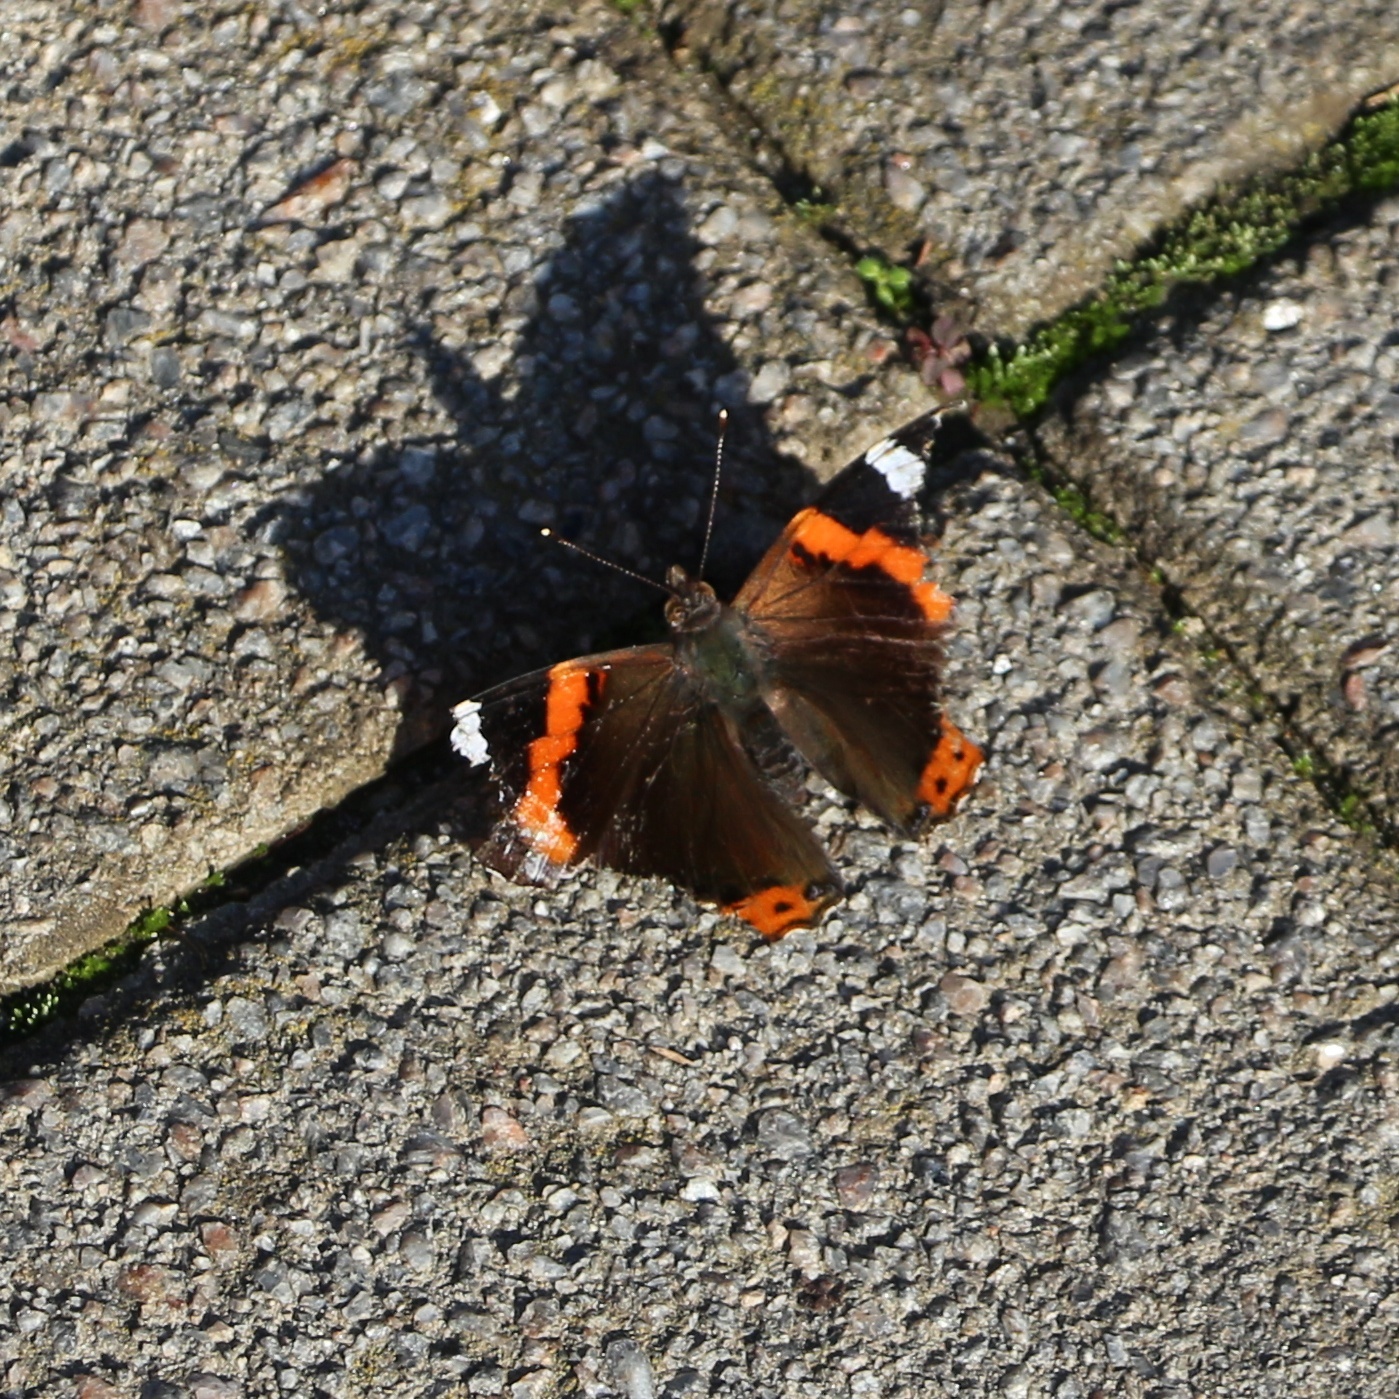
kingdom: Animalia
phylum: Arthropoda
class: Insecta
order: Lepidoptera
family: Nymphalidae
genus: Vanessa
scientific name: Vanessa atalanta
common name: Red admiral
